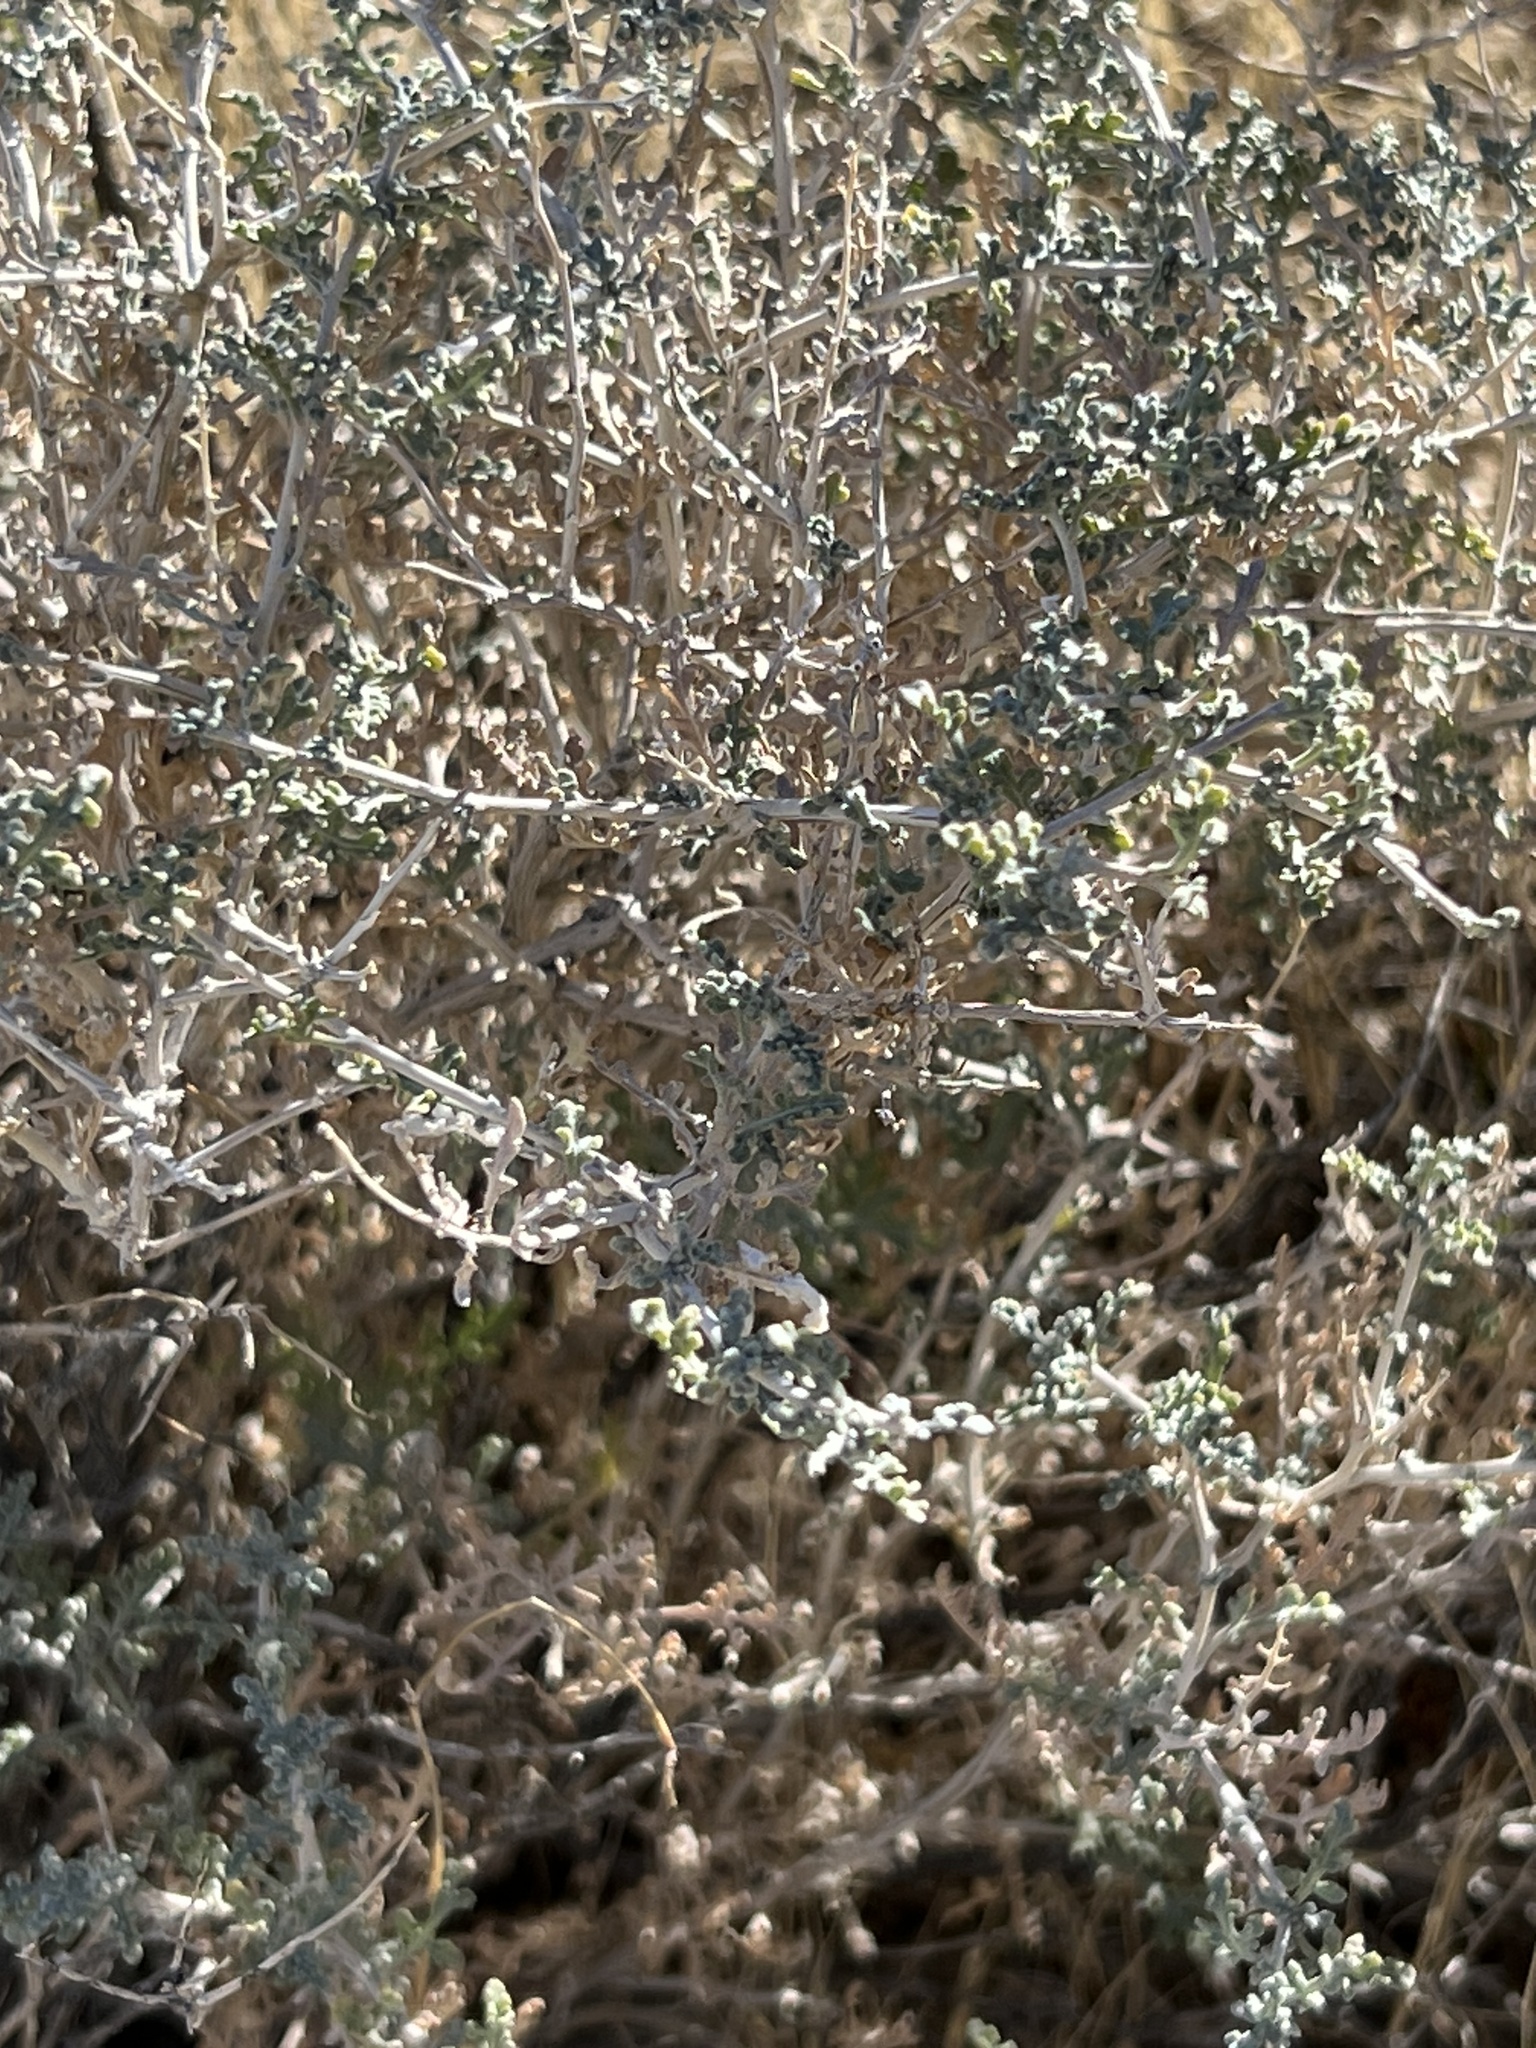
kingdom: Plantae
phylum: Tracheophyta
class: Magnoliopsida
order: Asterales
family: Asteraceae
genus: Ambrosia
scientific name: Ambrosia dumosa
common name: Bur-sage
